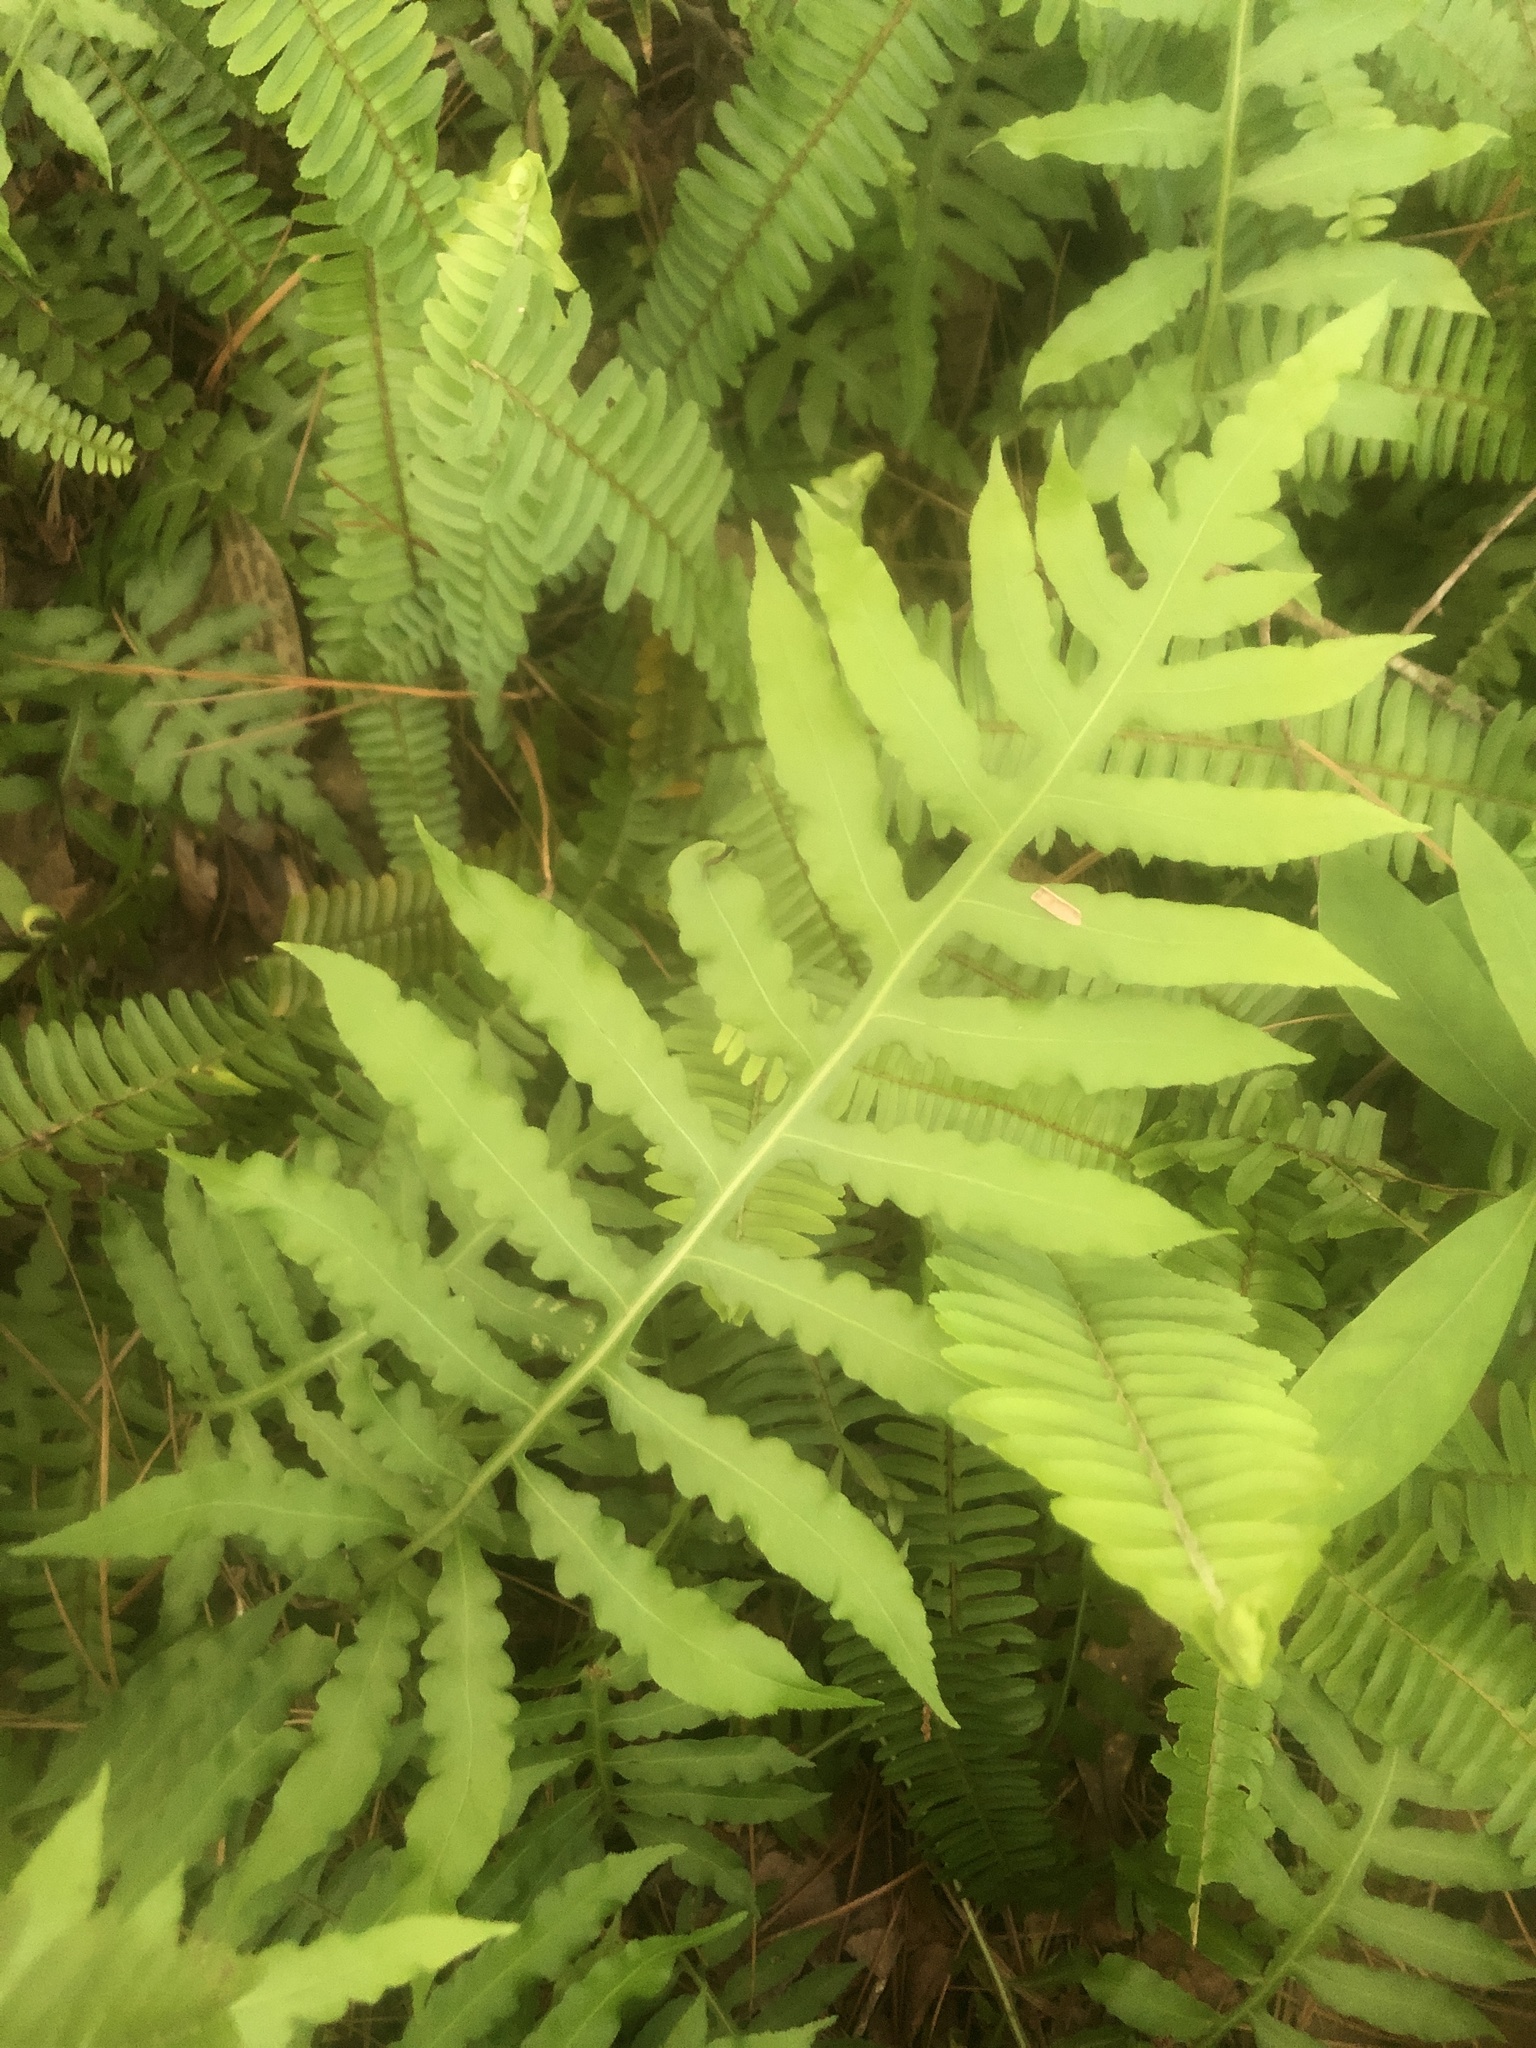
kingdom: Plantae
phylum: Tracheophyta
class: Polypodiopsida
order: Polypodiales
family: Blechnaceae
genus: Lorinseria
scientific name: Lorinseria areolata
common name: Dwarf chain fern
